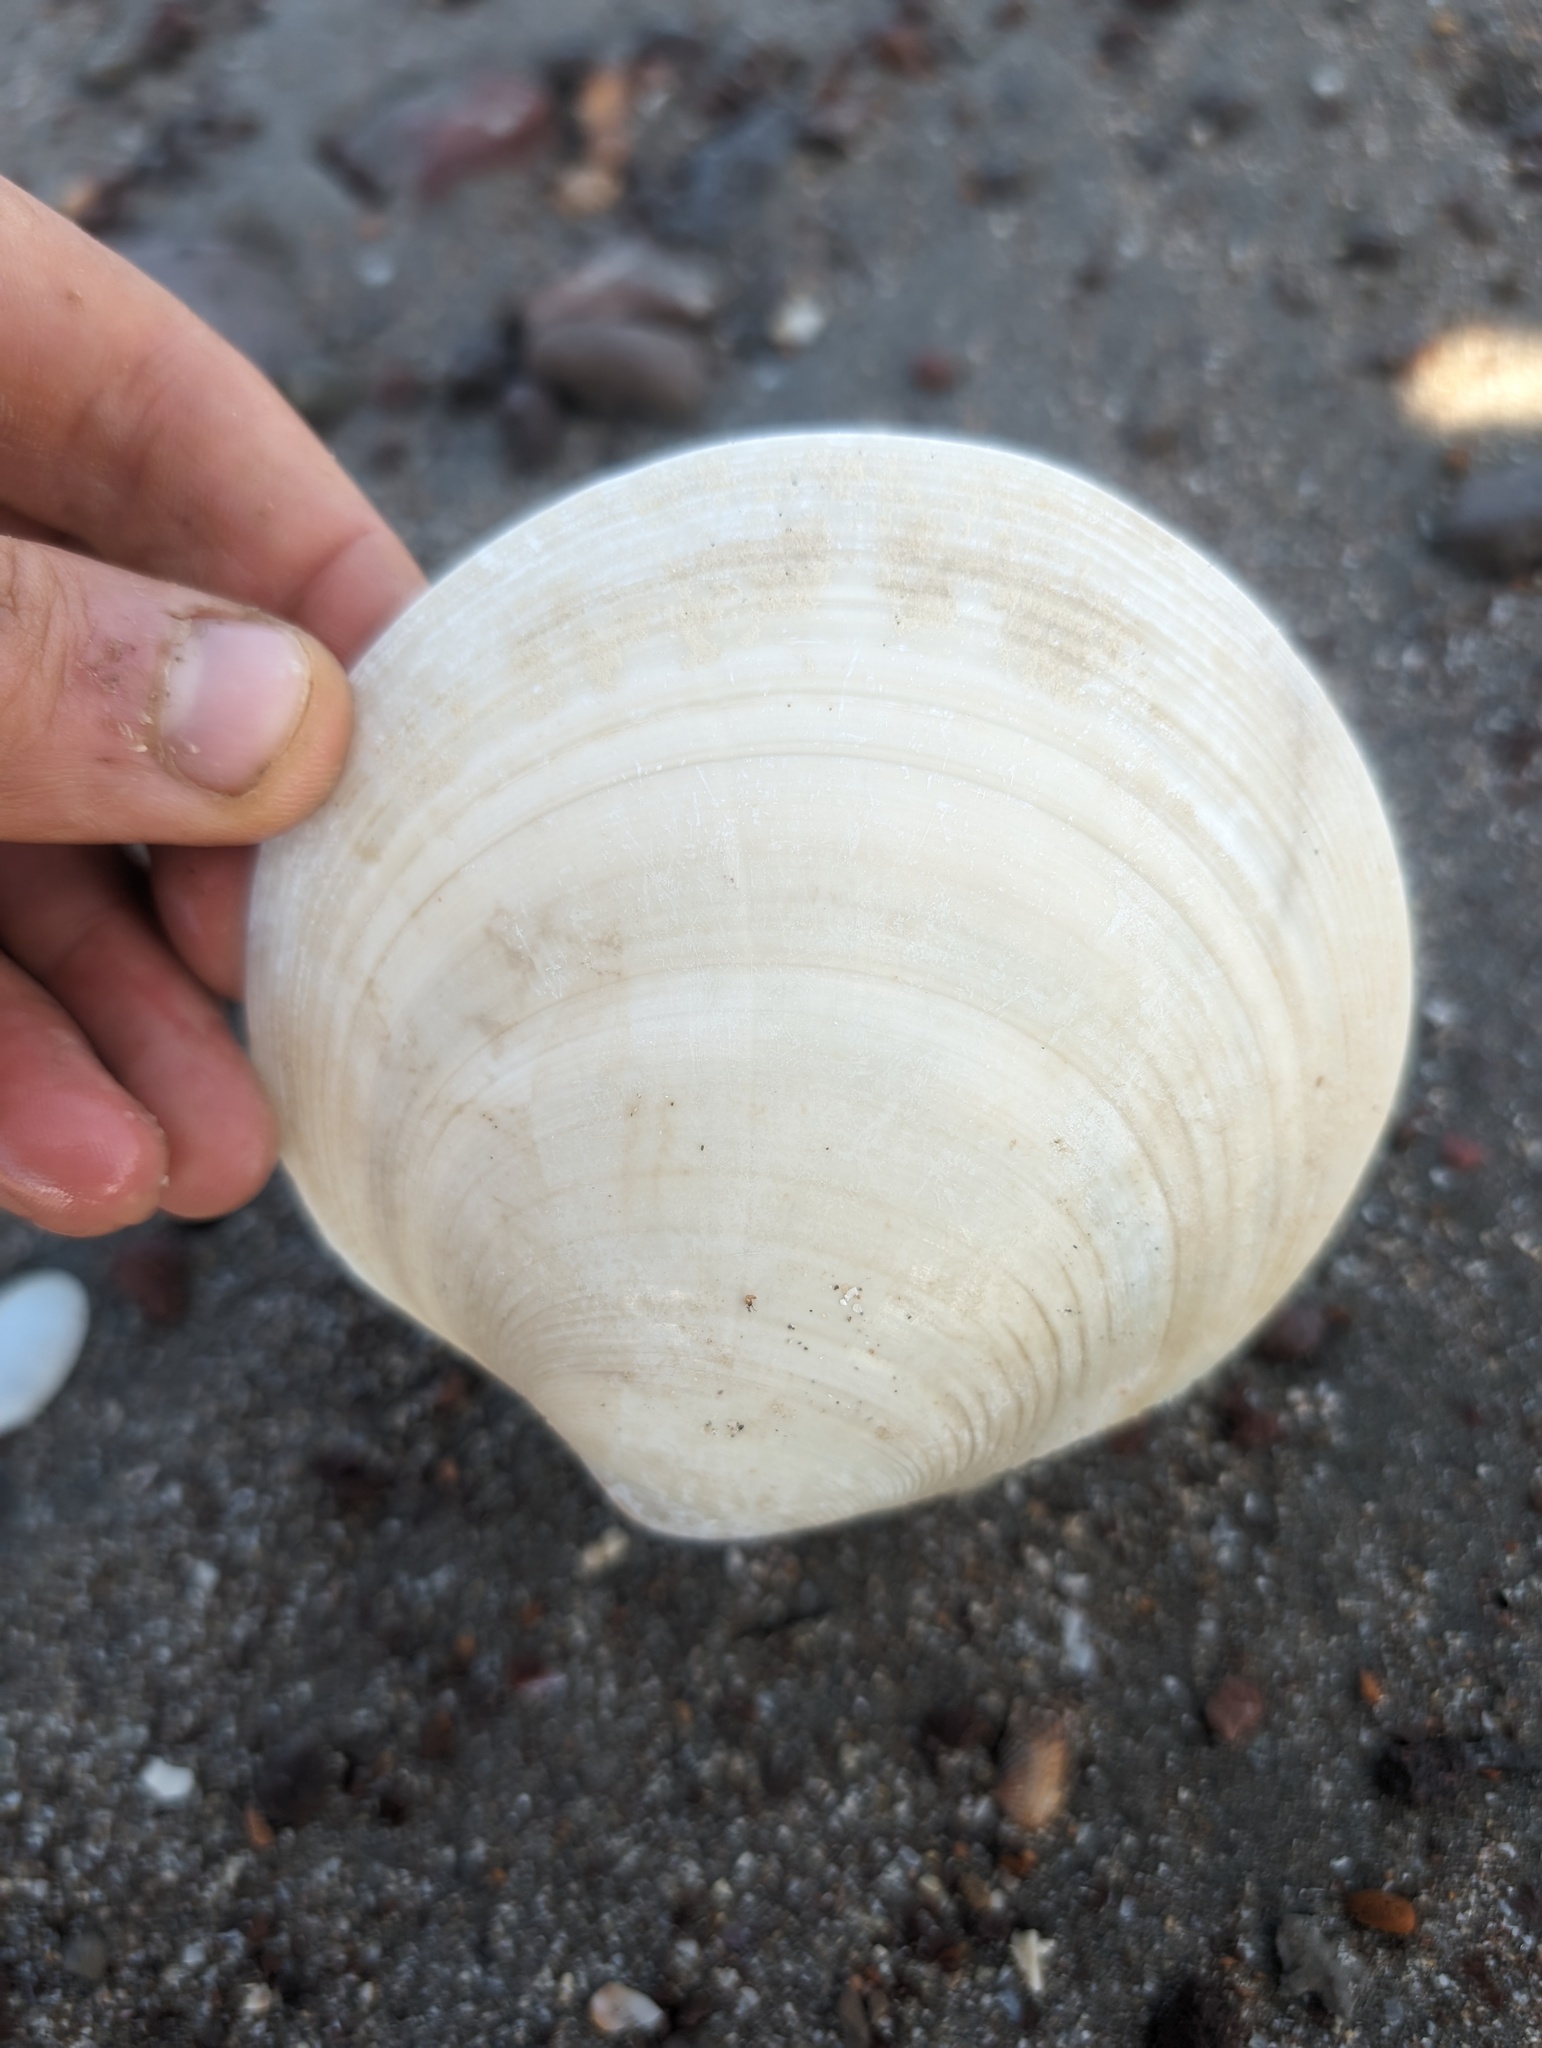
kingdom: Animalia
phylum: Mollusca
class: Bivalvia
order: Venerida
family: Veneridae
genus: Dosinia
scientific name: Dosinia ponderosa
